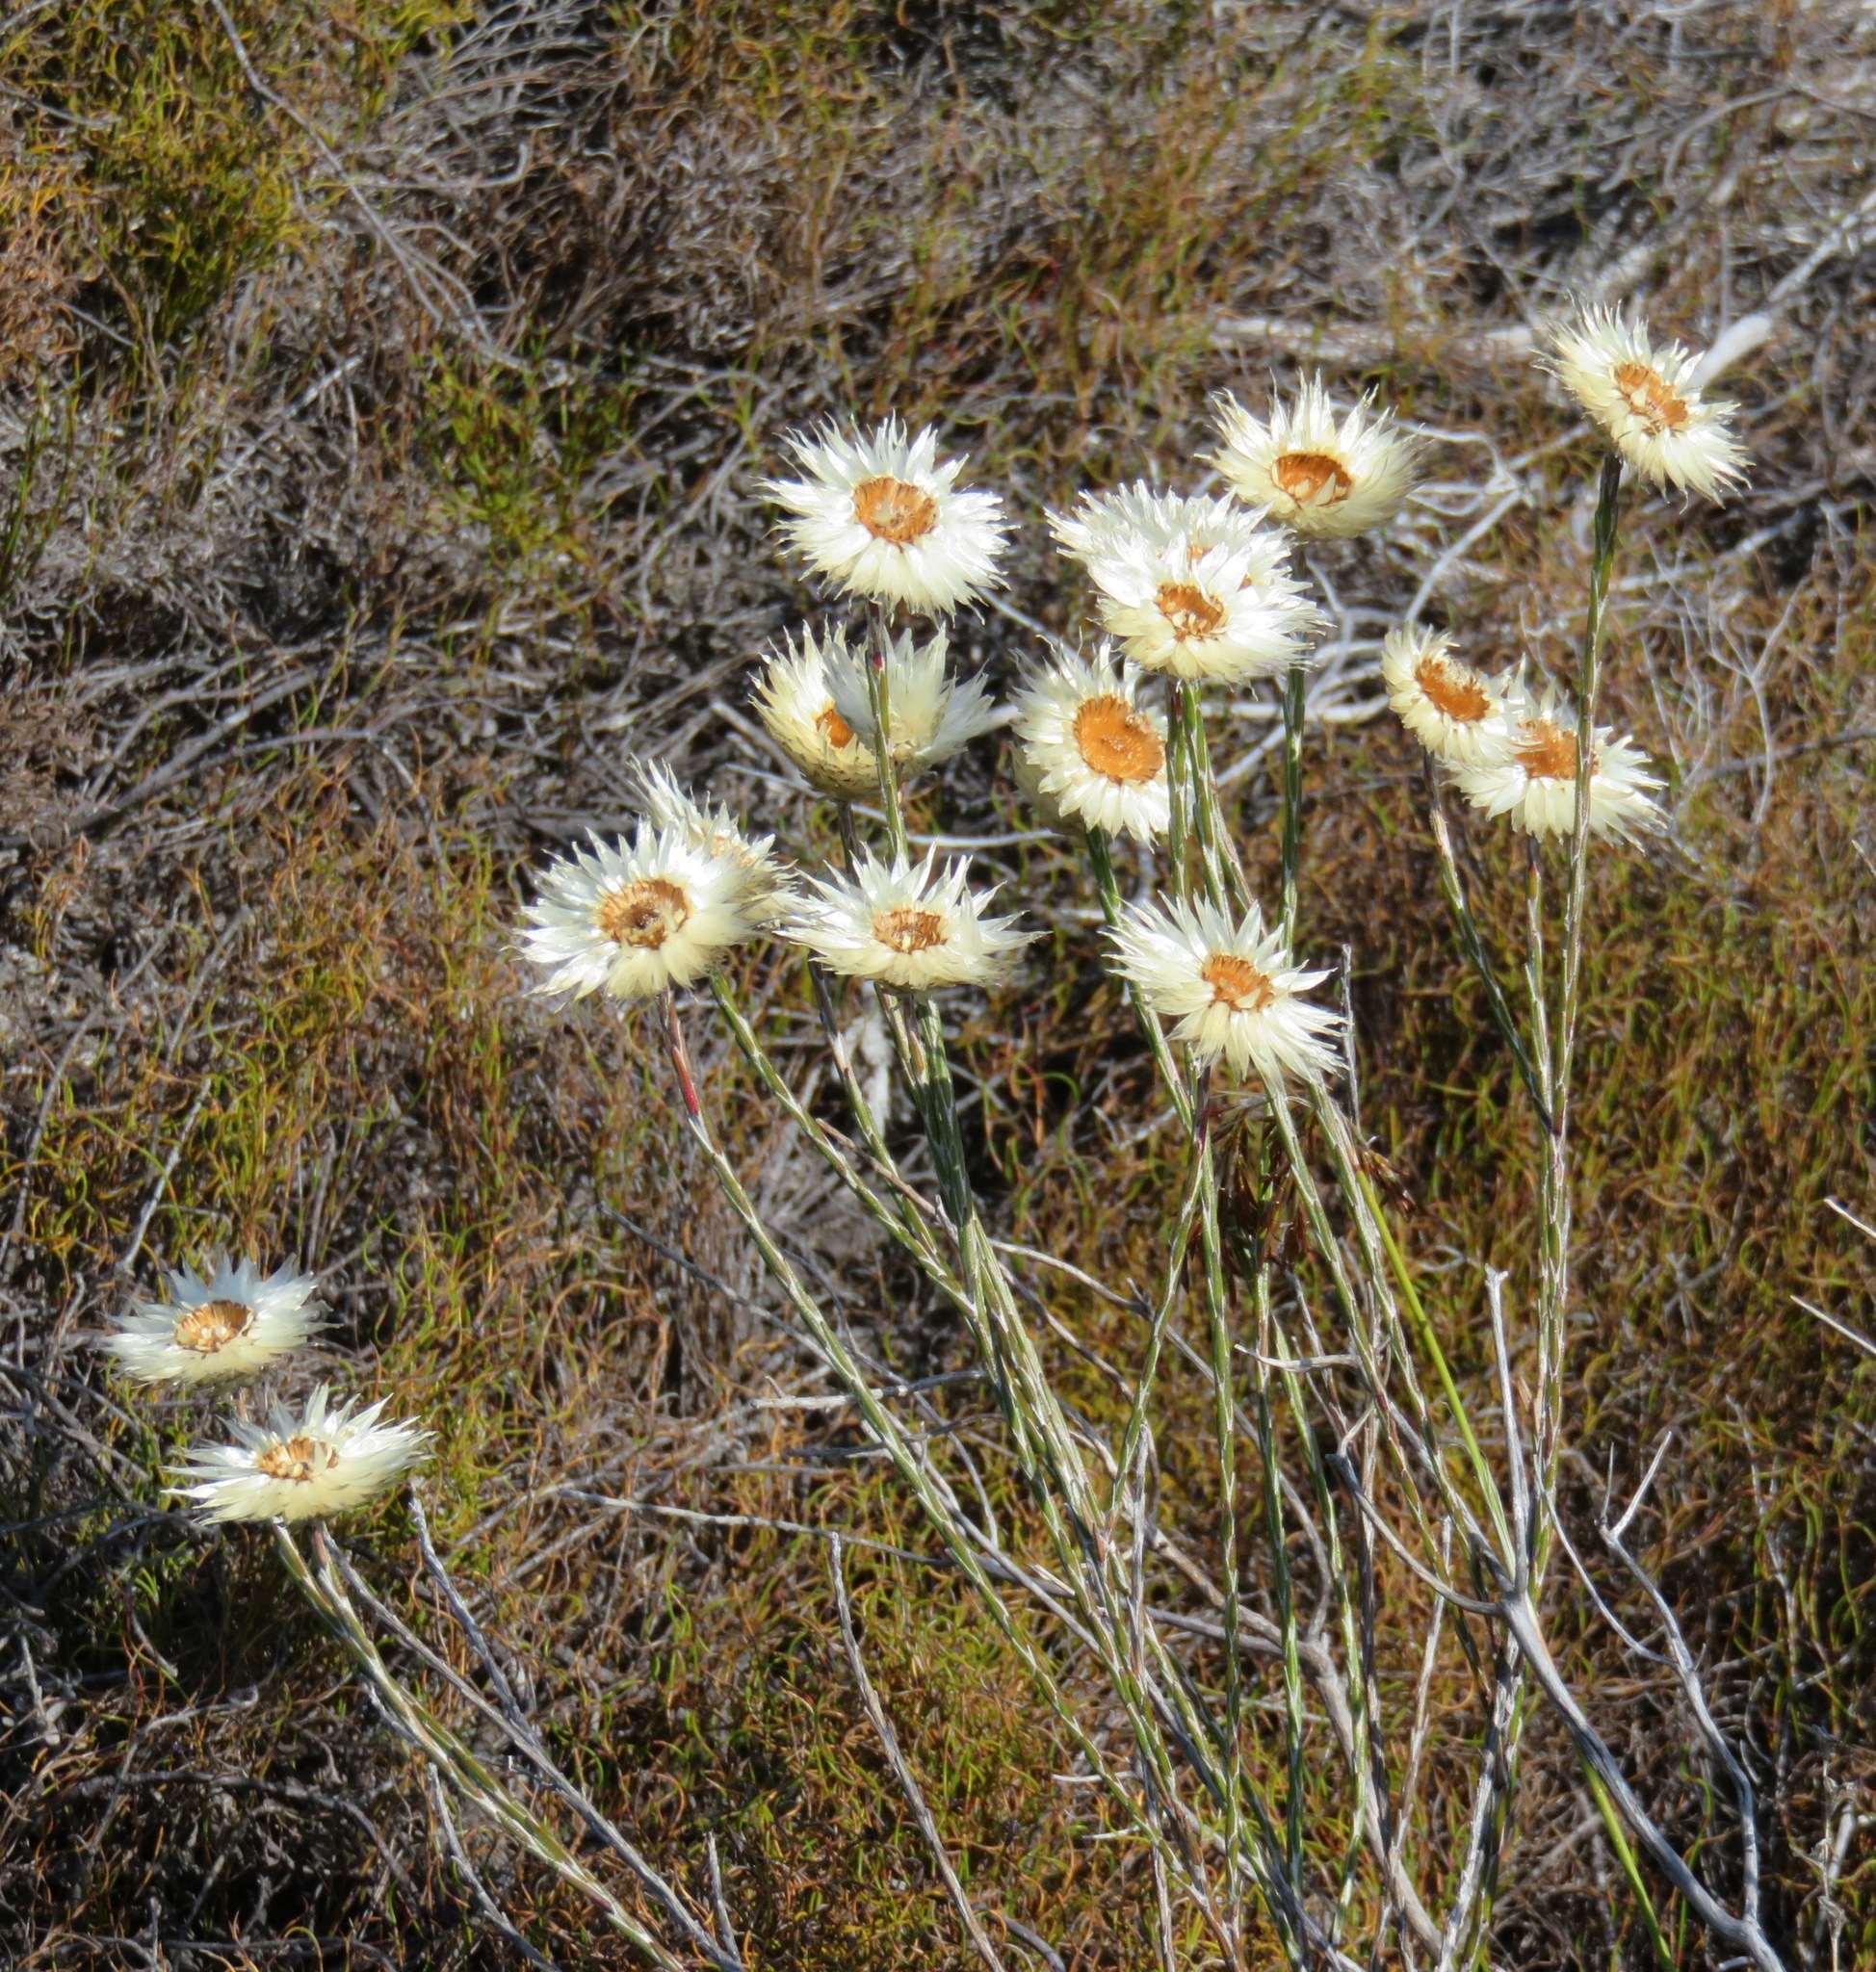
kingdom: Plantae
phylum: Tracheophyta
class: Magnoliopsida
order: Asterales
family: Asteraceae
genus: Edmondia
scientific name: Edmondia sesamoides
